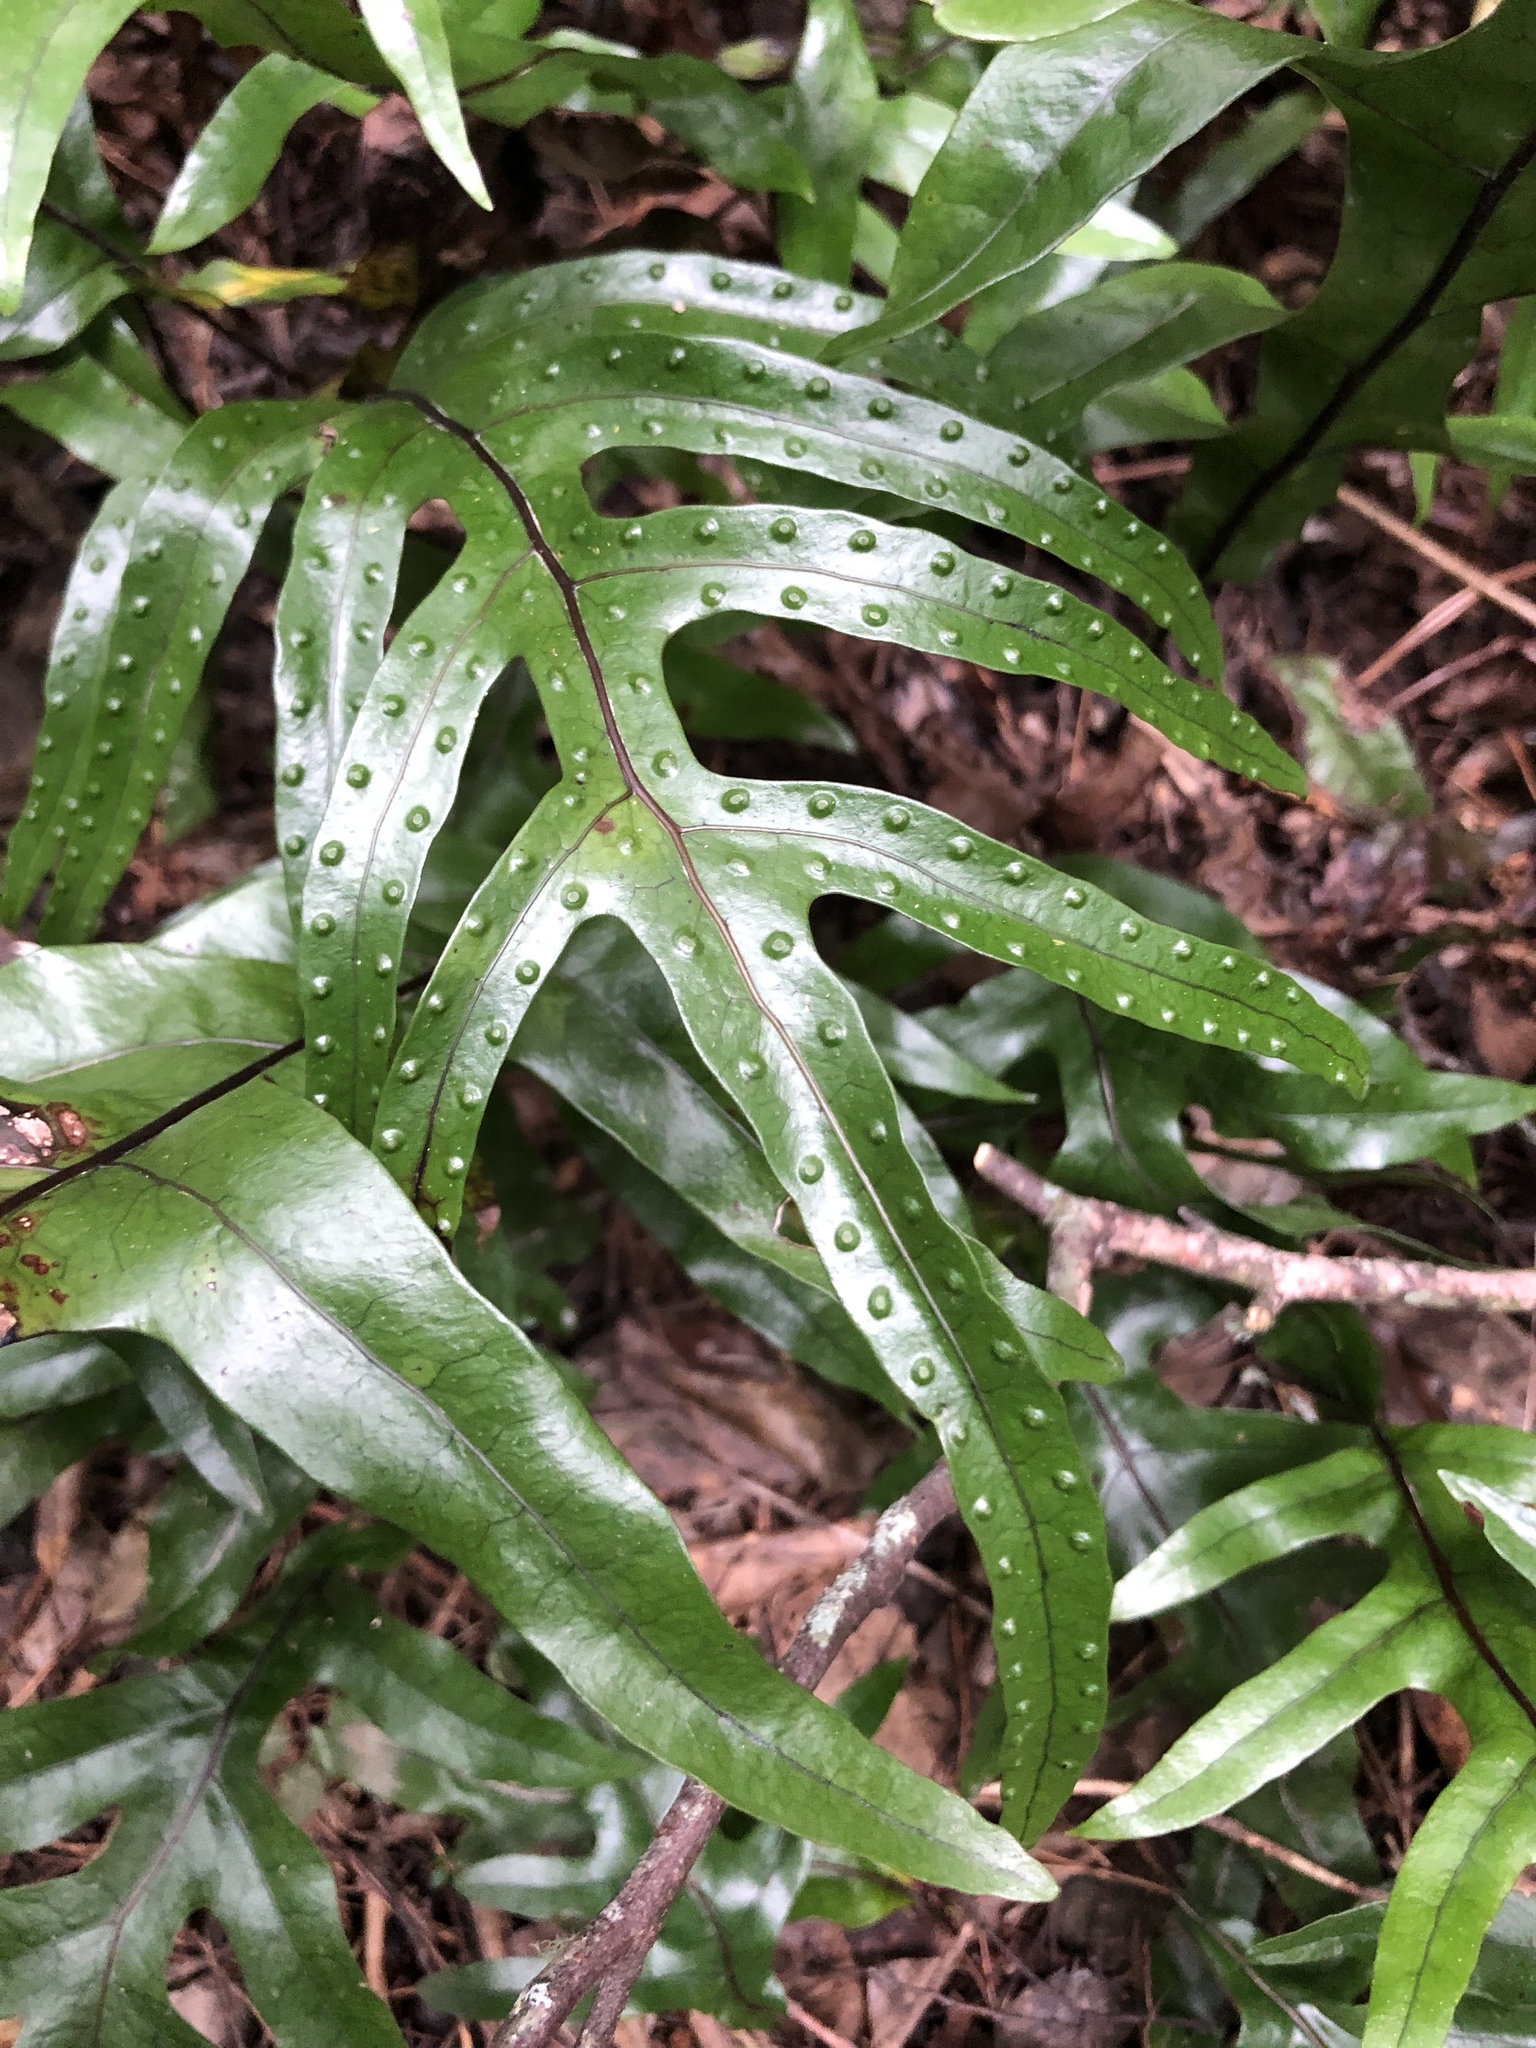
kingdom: Plantae
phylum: Tracheophyta
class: Polypodiopsida
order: Polypodiales
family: Polypodiaceae
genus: Lecanopteris
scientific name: Lecanopteris pustulata
